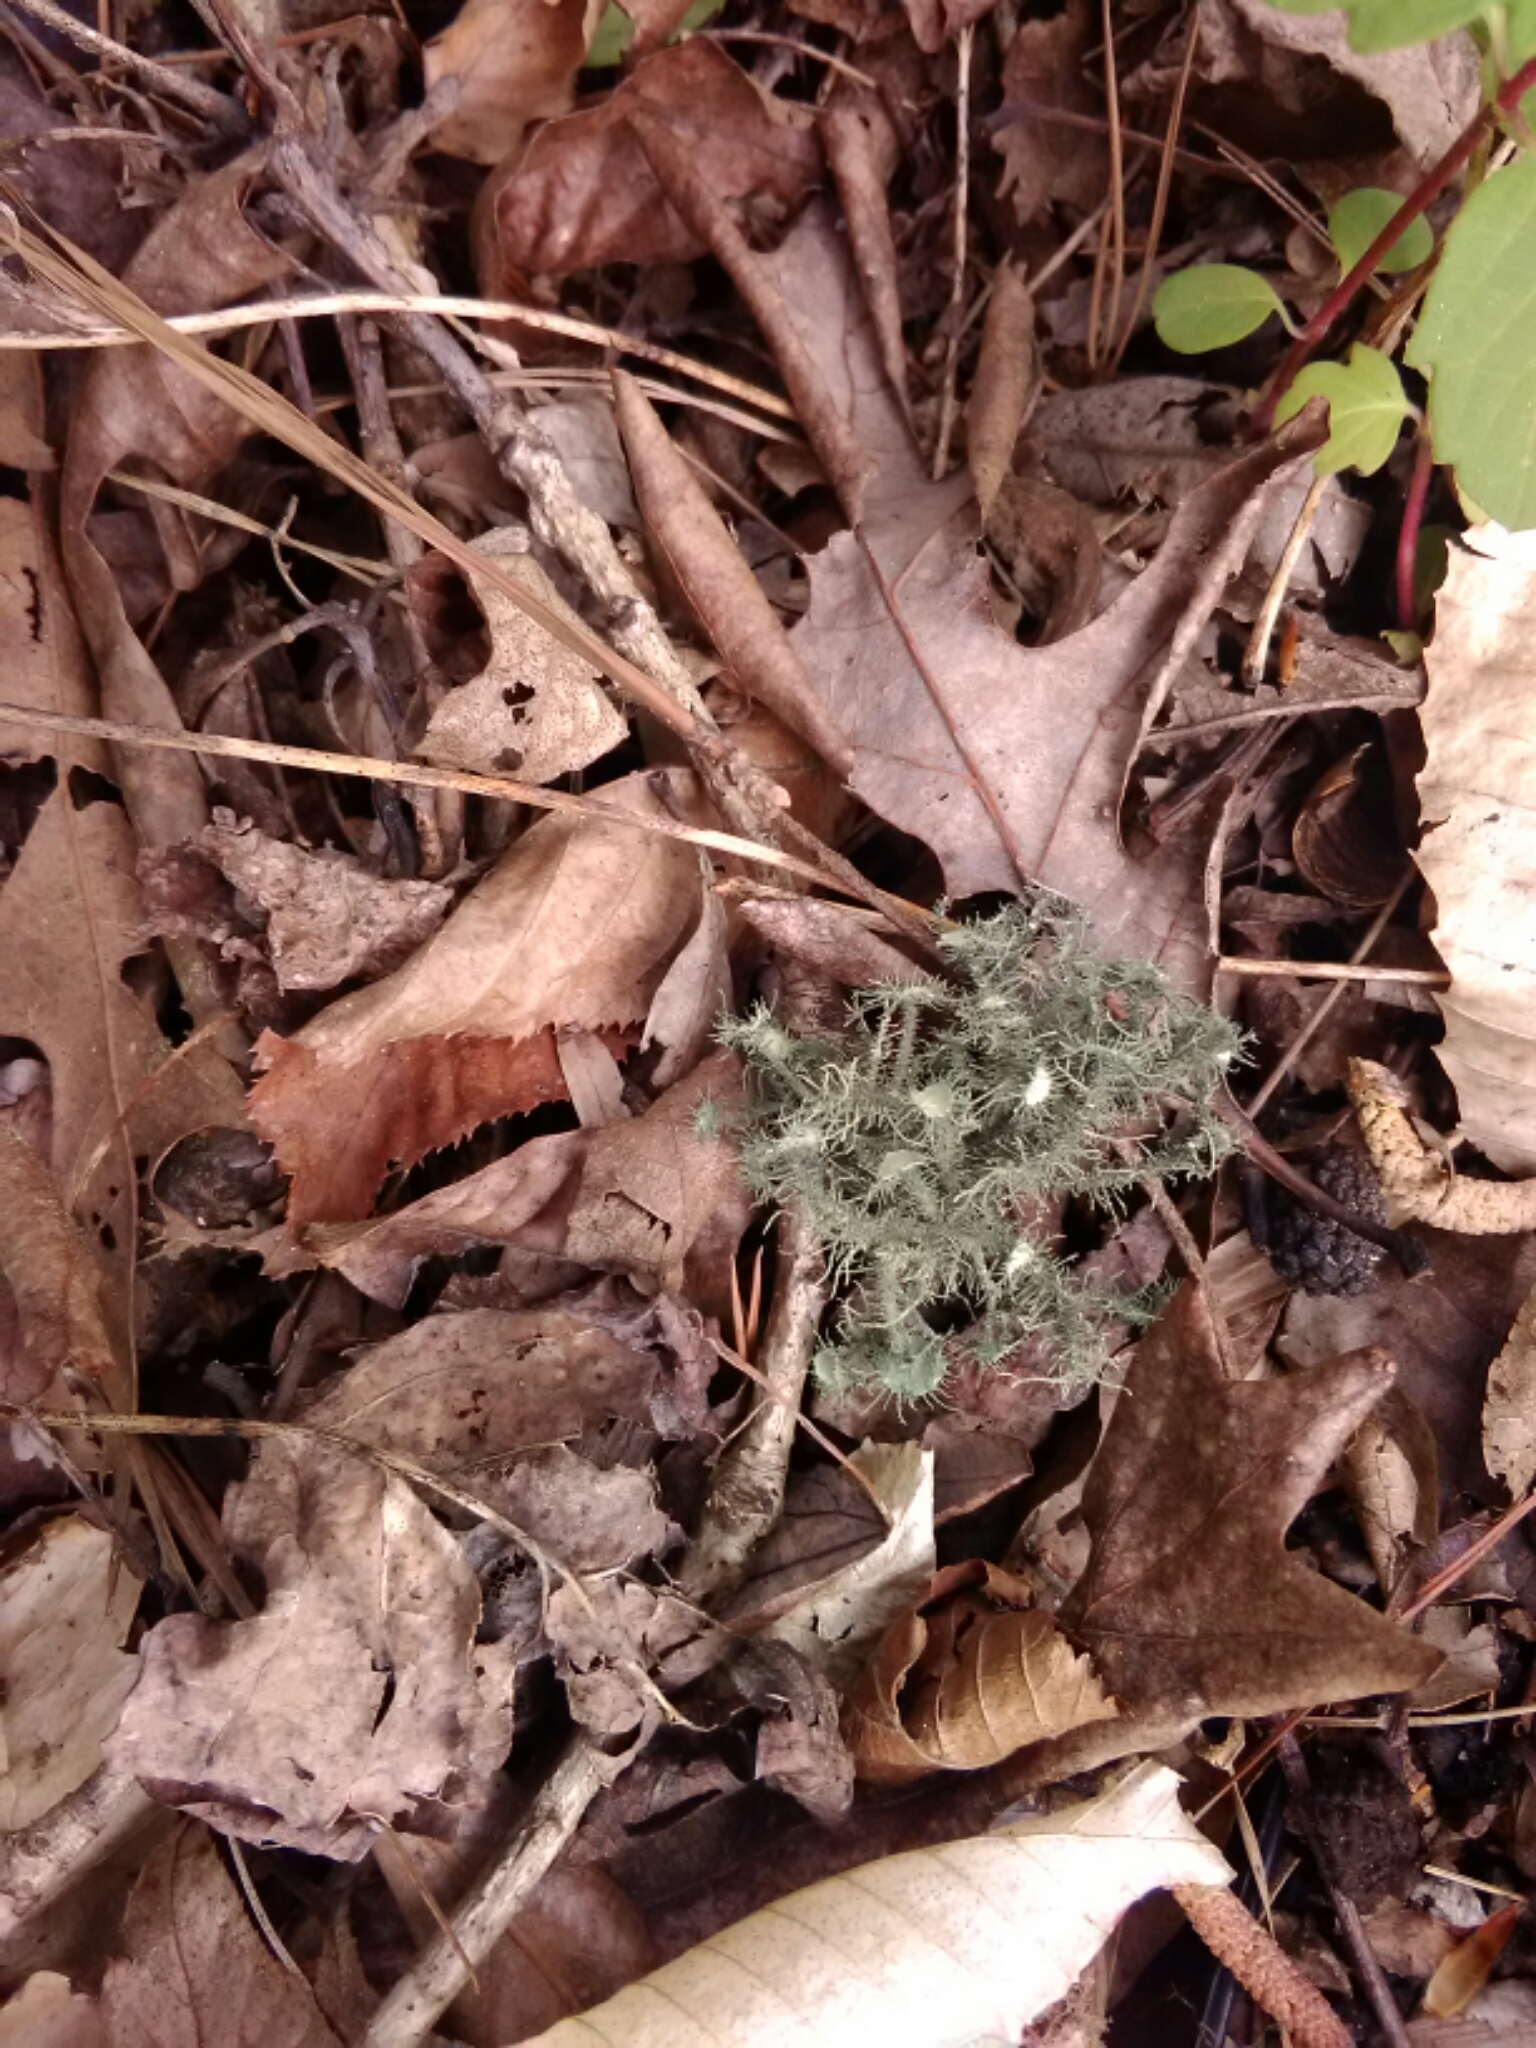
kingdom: Fungi
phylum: Ascomycota
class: Lecanoromycetes
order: Lecanorales
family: Parmeliaceae
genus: Usnea
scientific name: Usnea strigosa
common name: Bushy beard lichen
